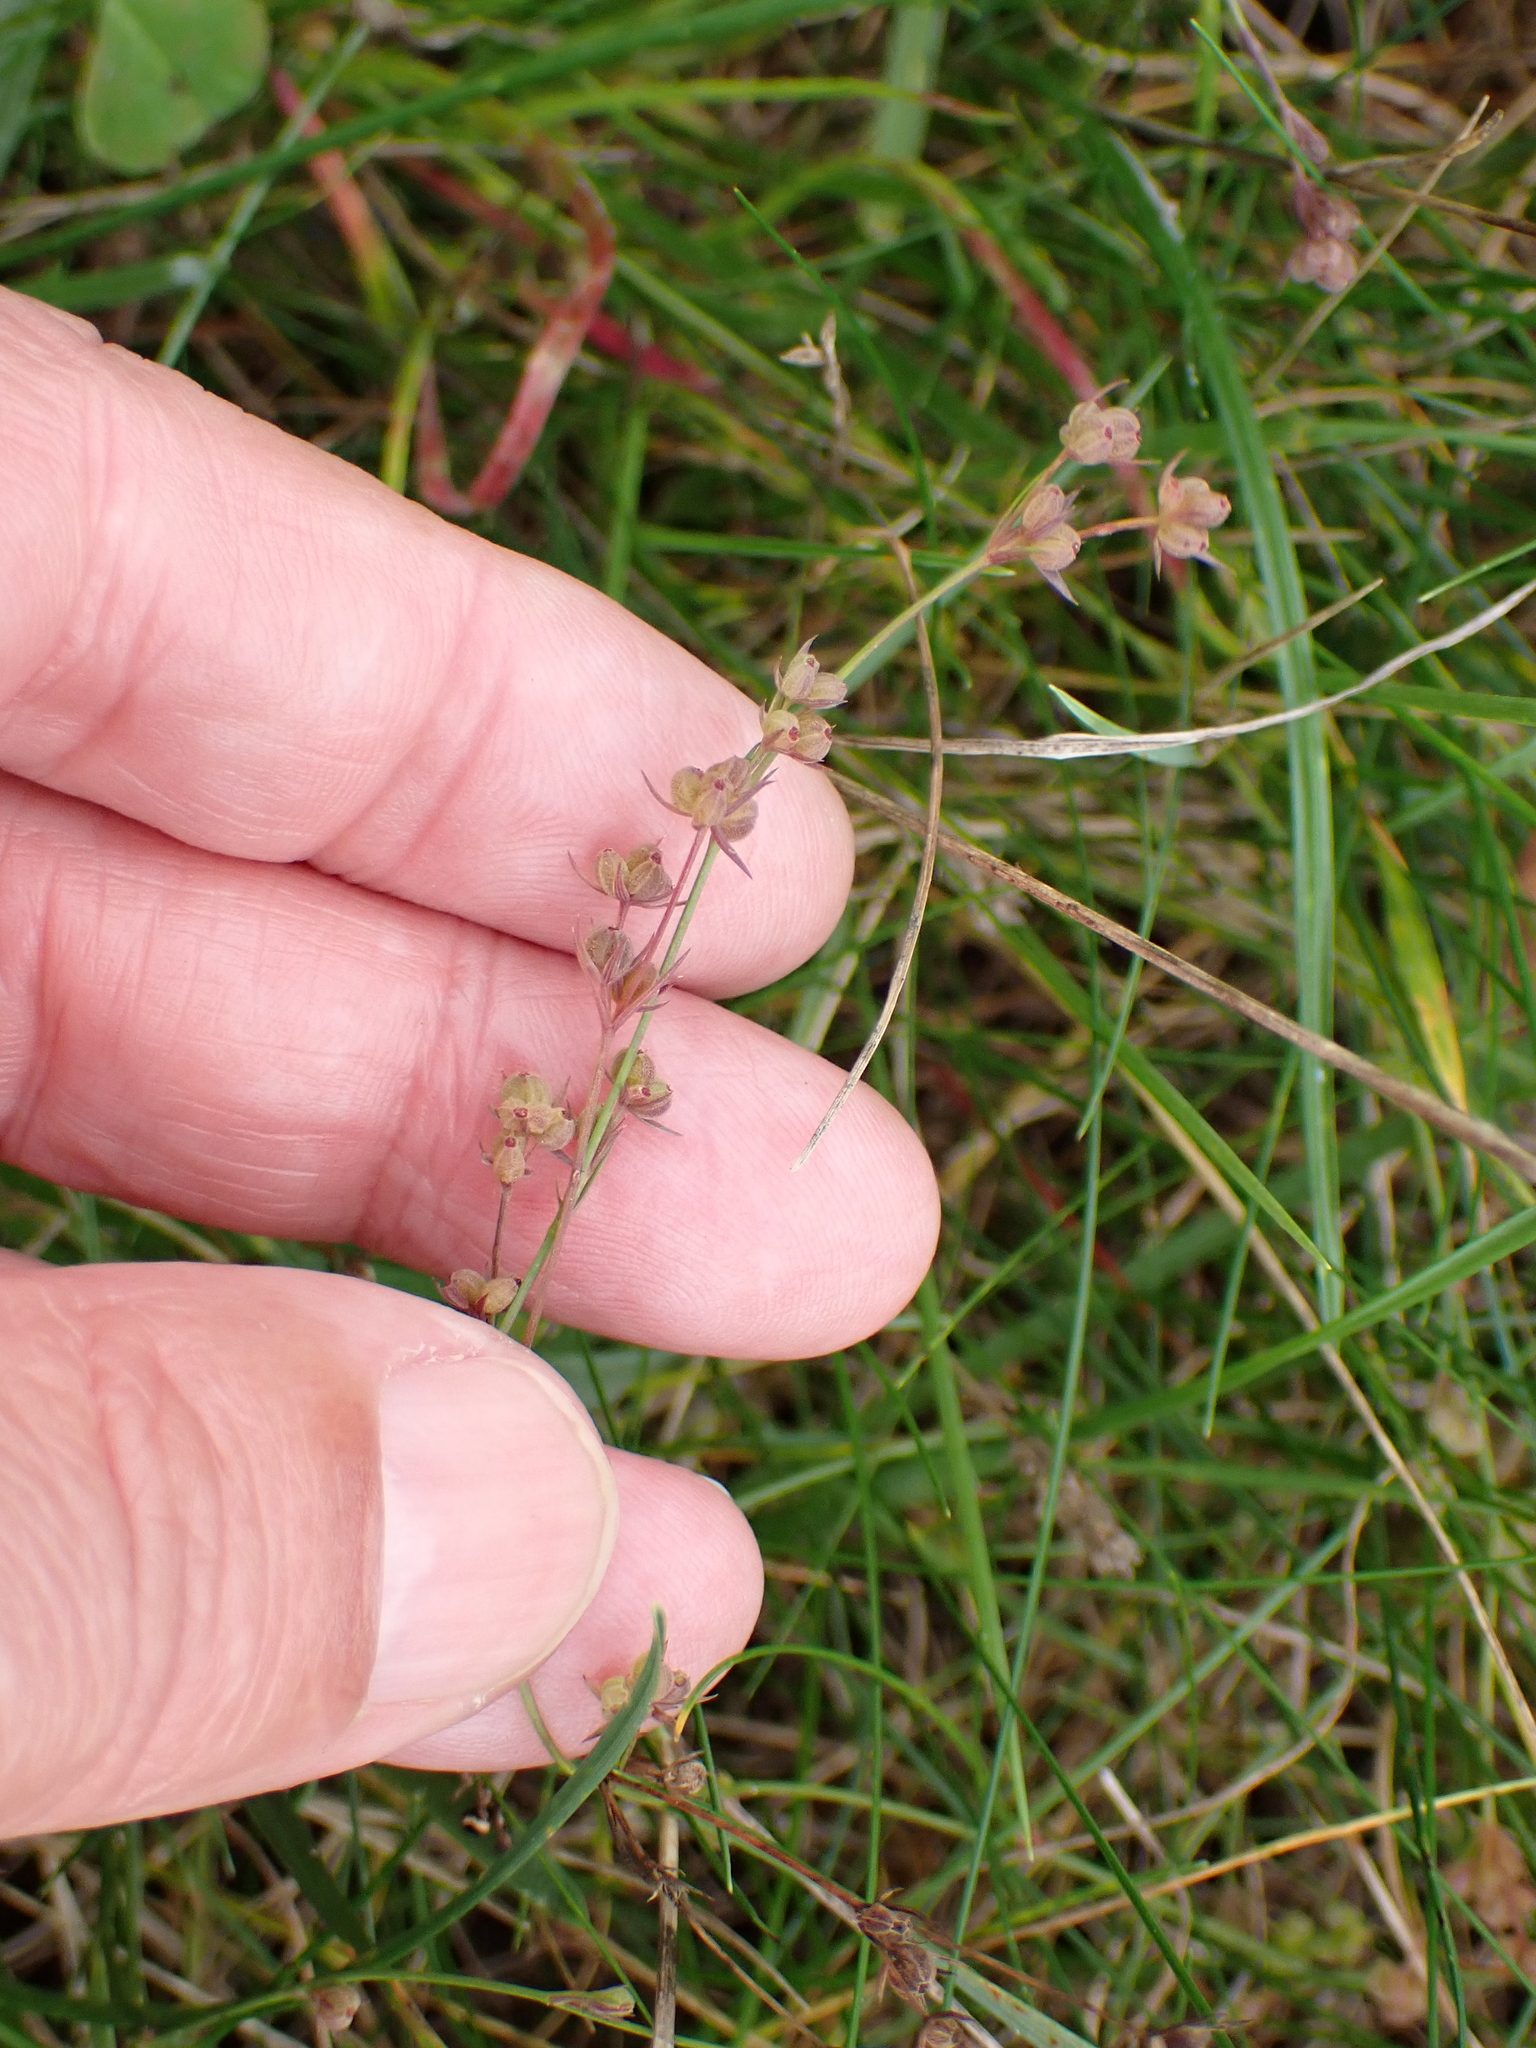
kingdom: Plantae
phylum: Tracheophyta
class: Magnoliopsida
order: Apiales
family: Apiaceae
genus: Bupleurum
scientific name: Bupleurum tenuissimum
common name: Slender hare's-ear
